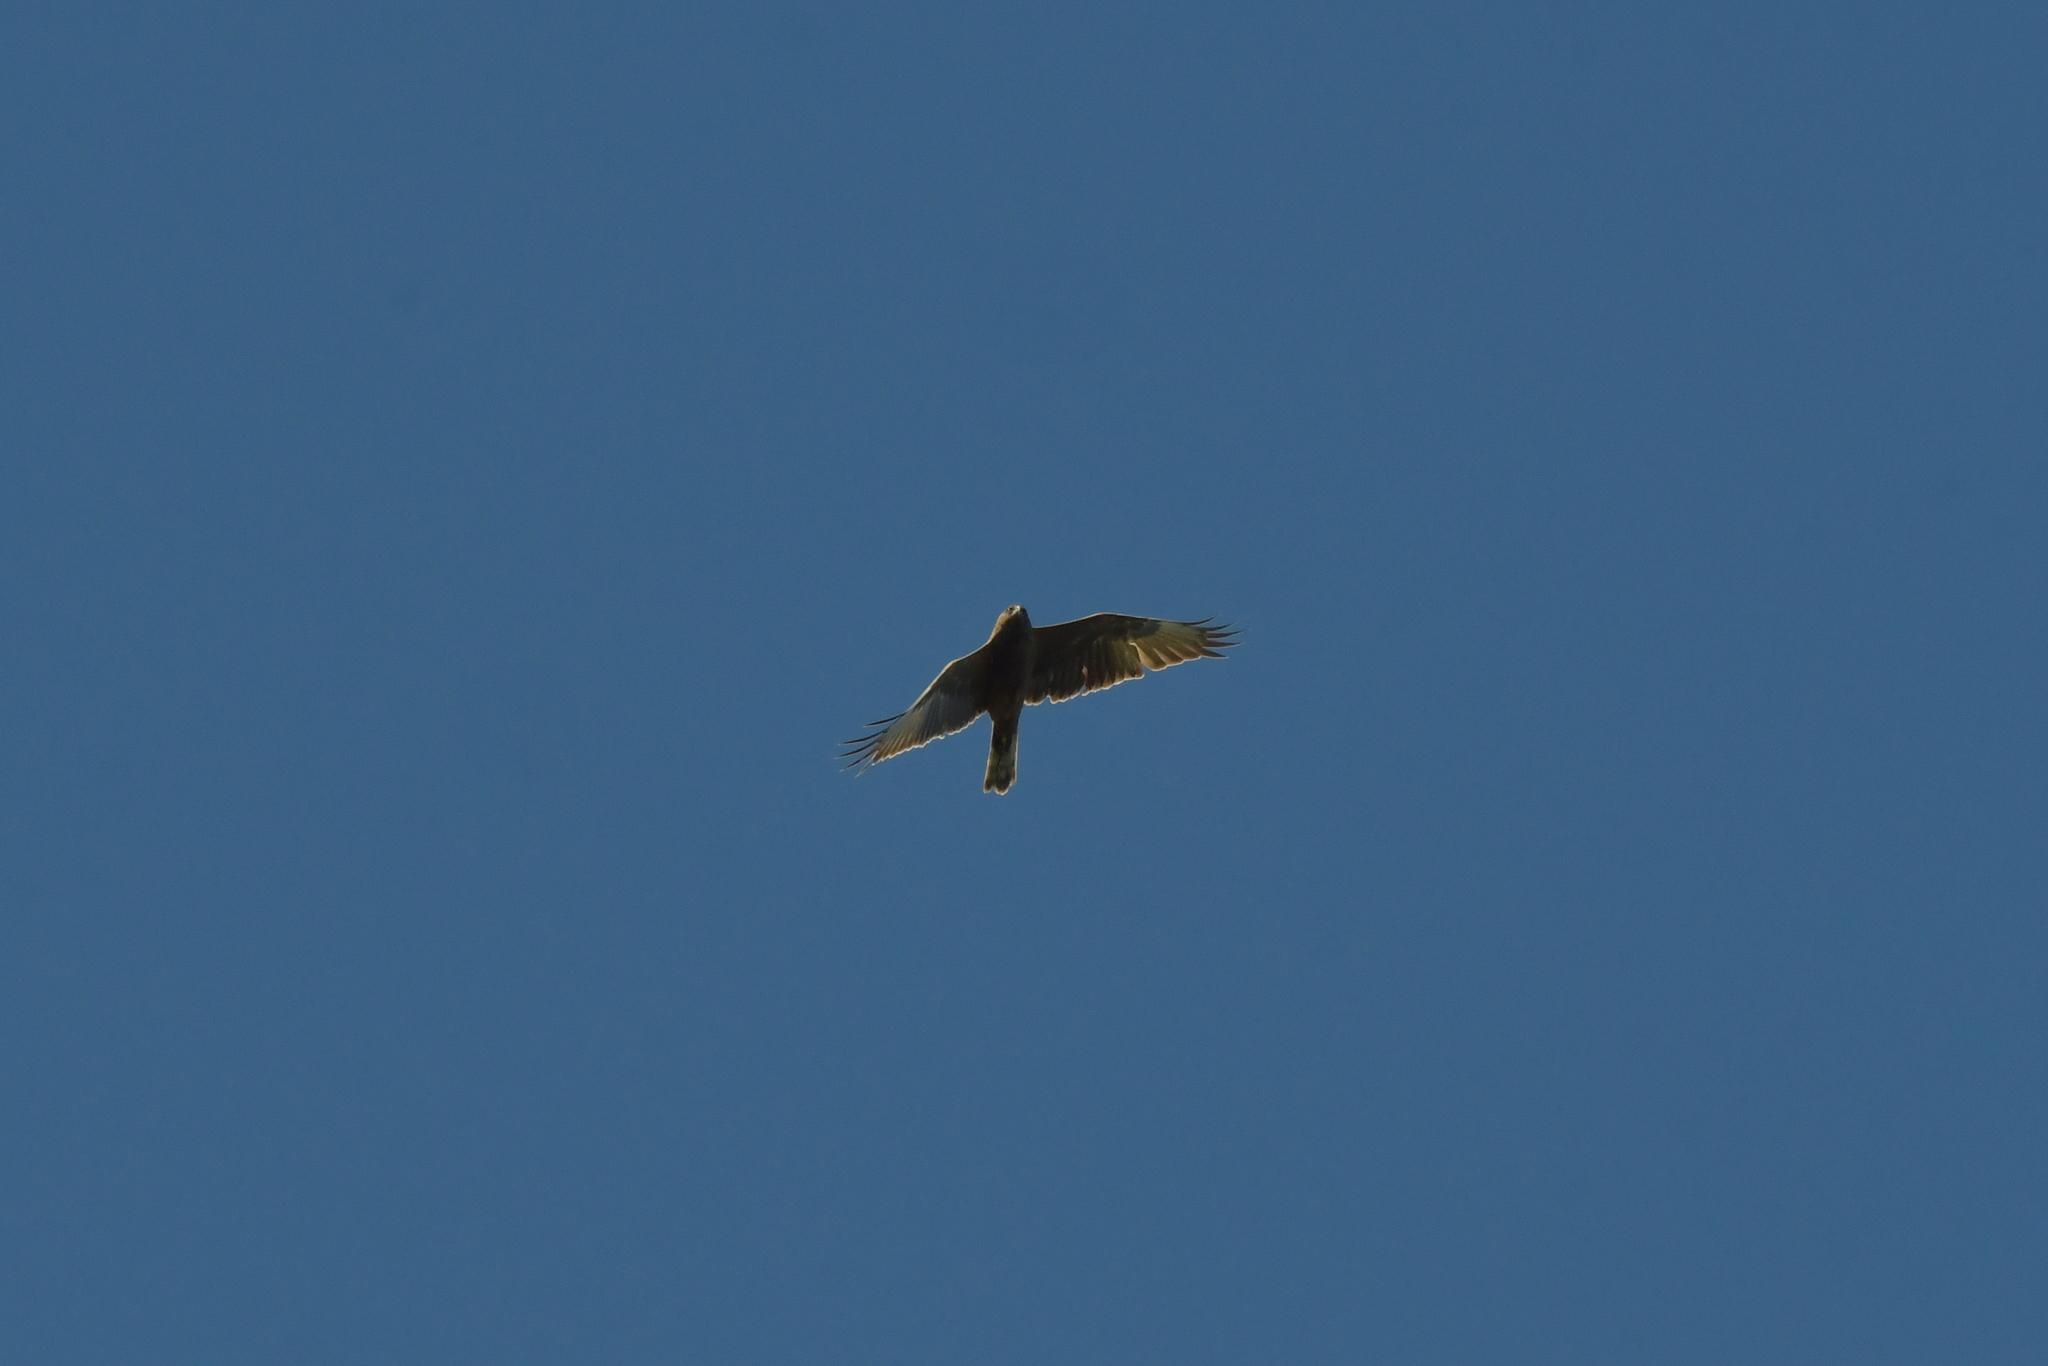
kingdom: Animalia
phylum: Chordata
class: Aves
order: Accipitriformes
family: Accipitridae
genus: Circus
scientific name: Circus approximans
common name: Swamp harrier
